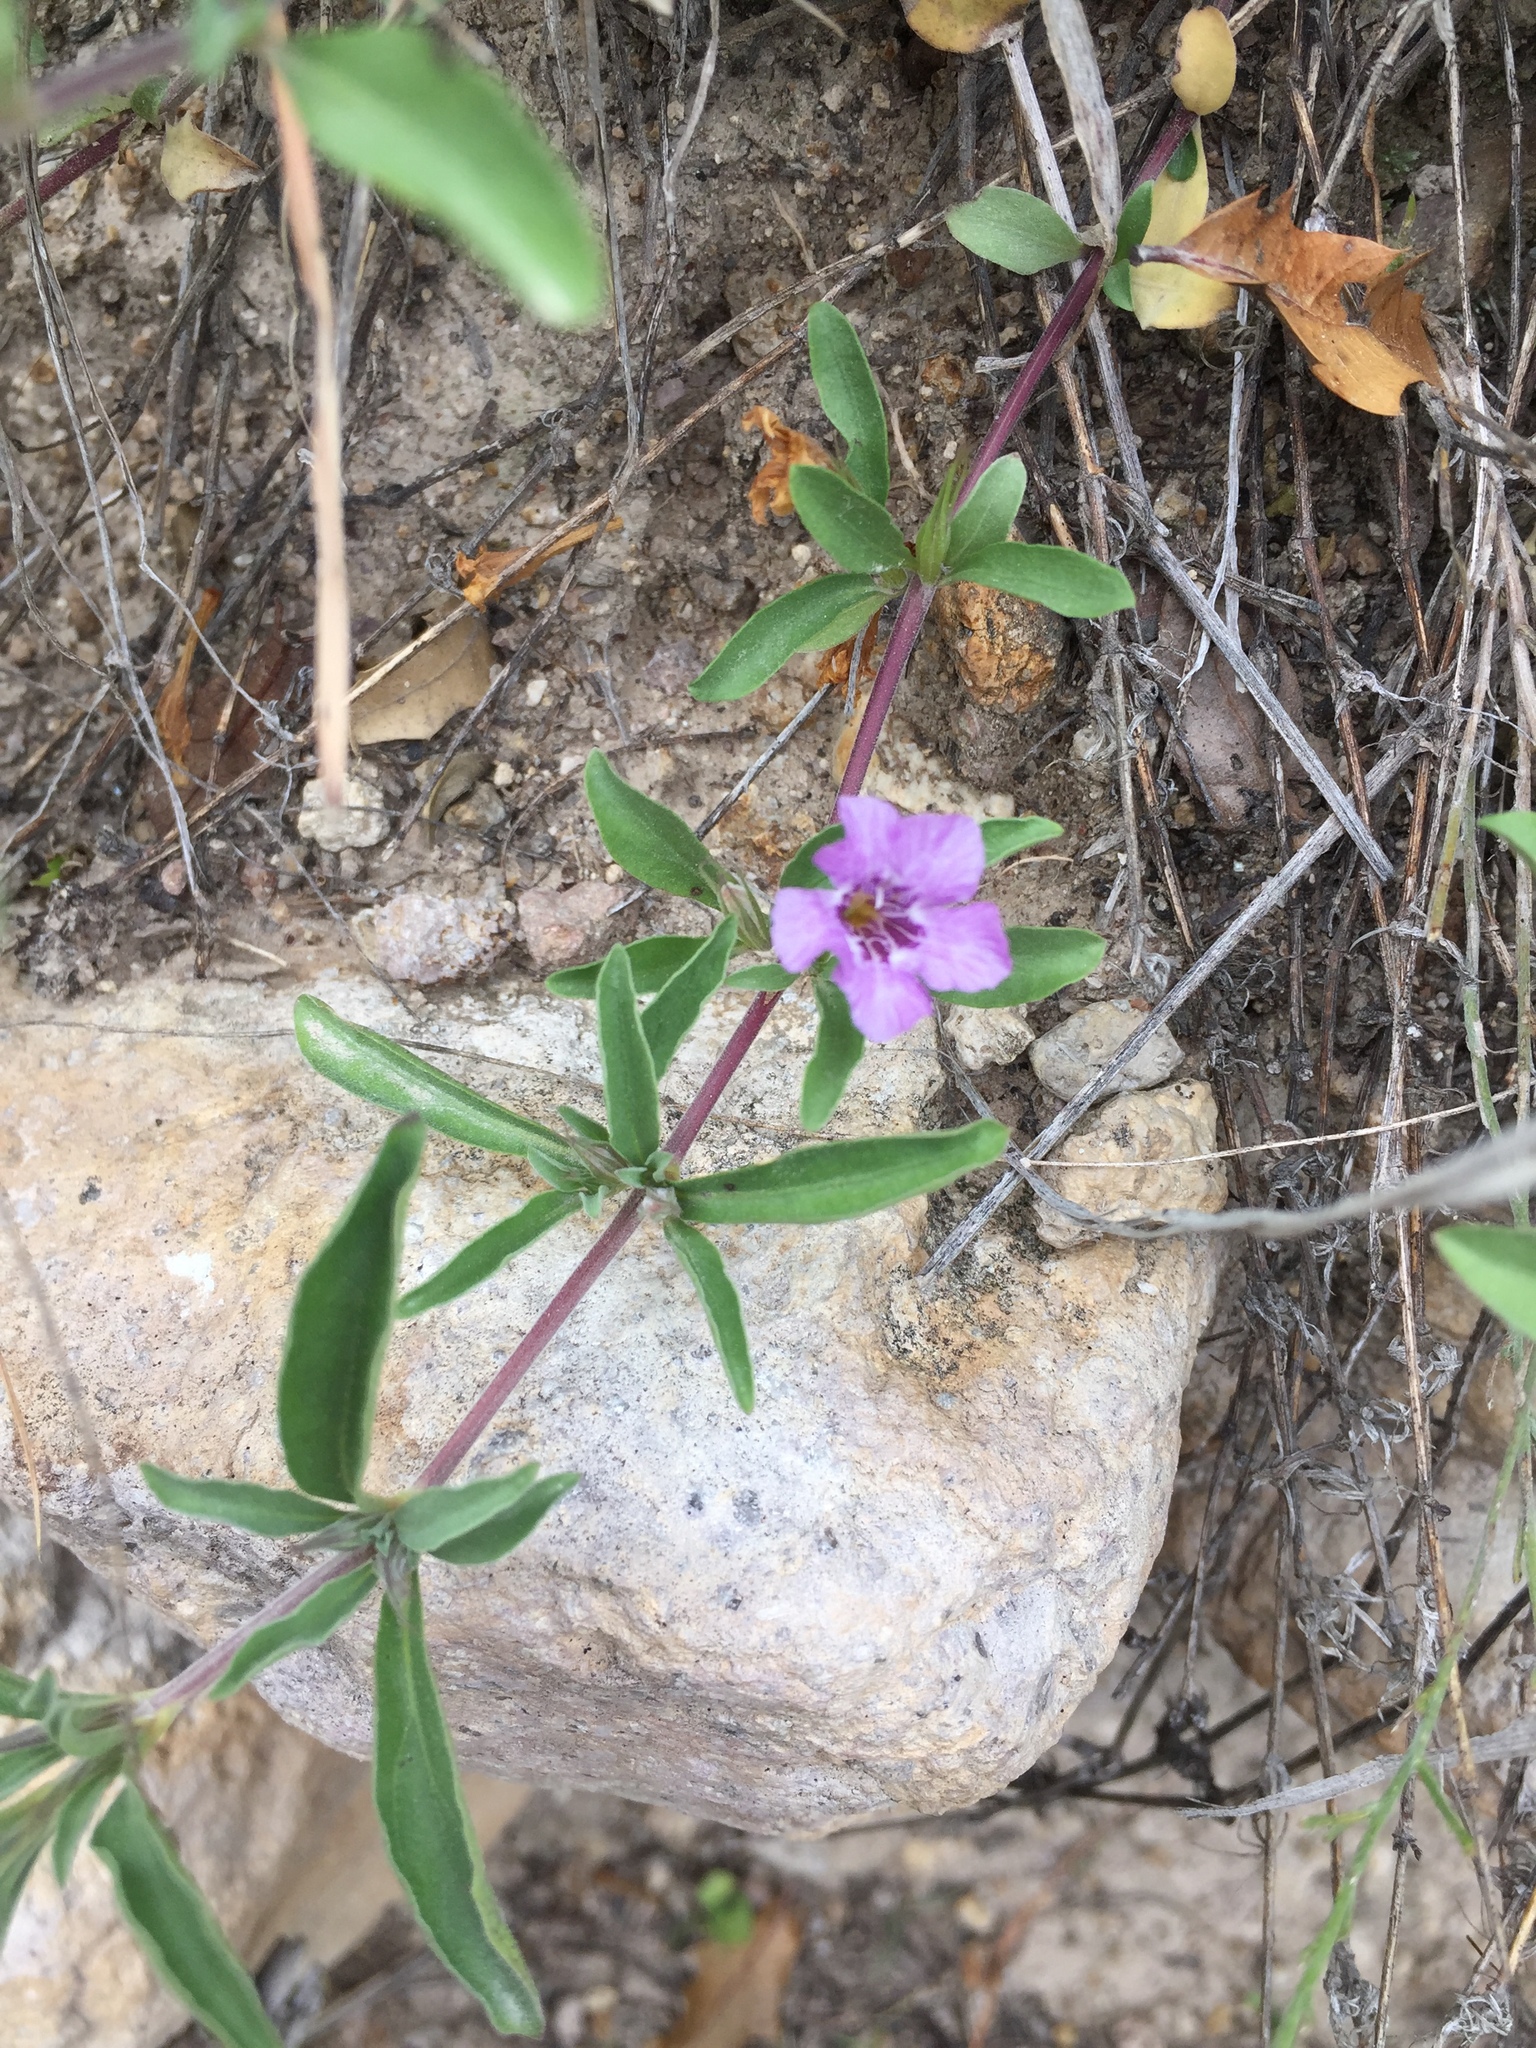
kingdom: Plantae
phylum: Tracheophyta
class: Magnoliopsida
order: Lamiales
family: Acanthaceae
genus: Dyschoriste
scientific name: Dyschoriste schiedeana
